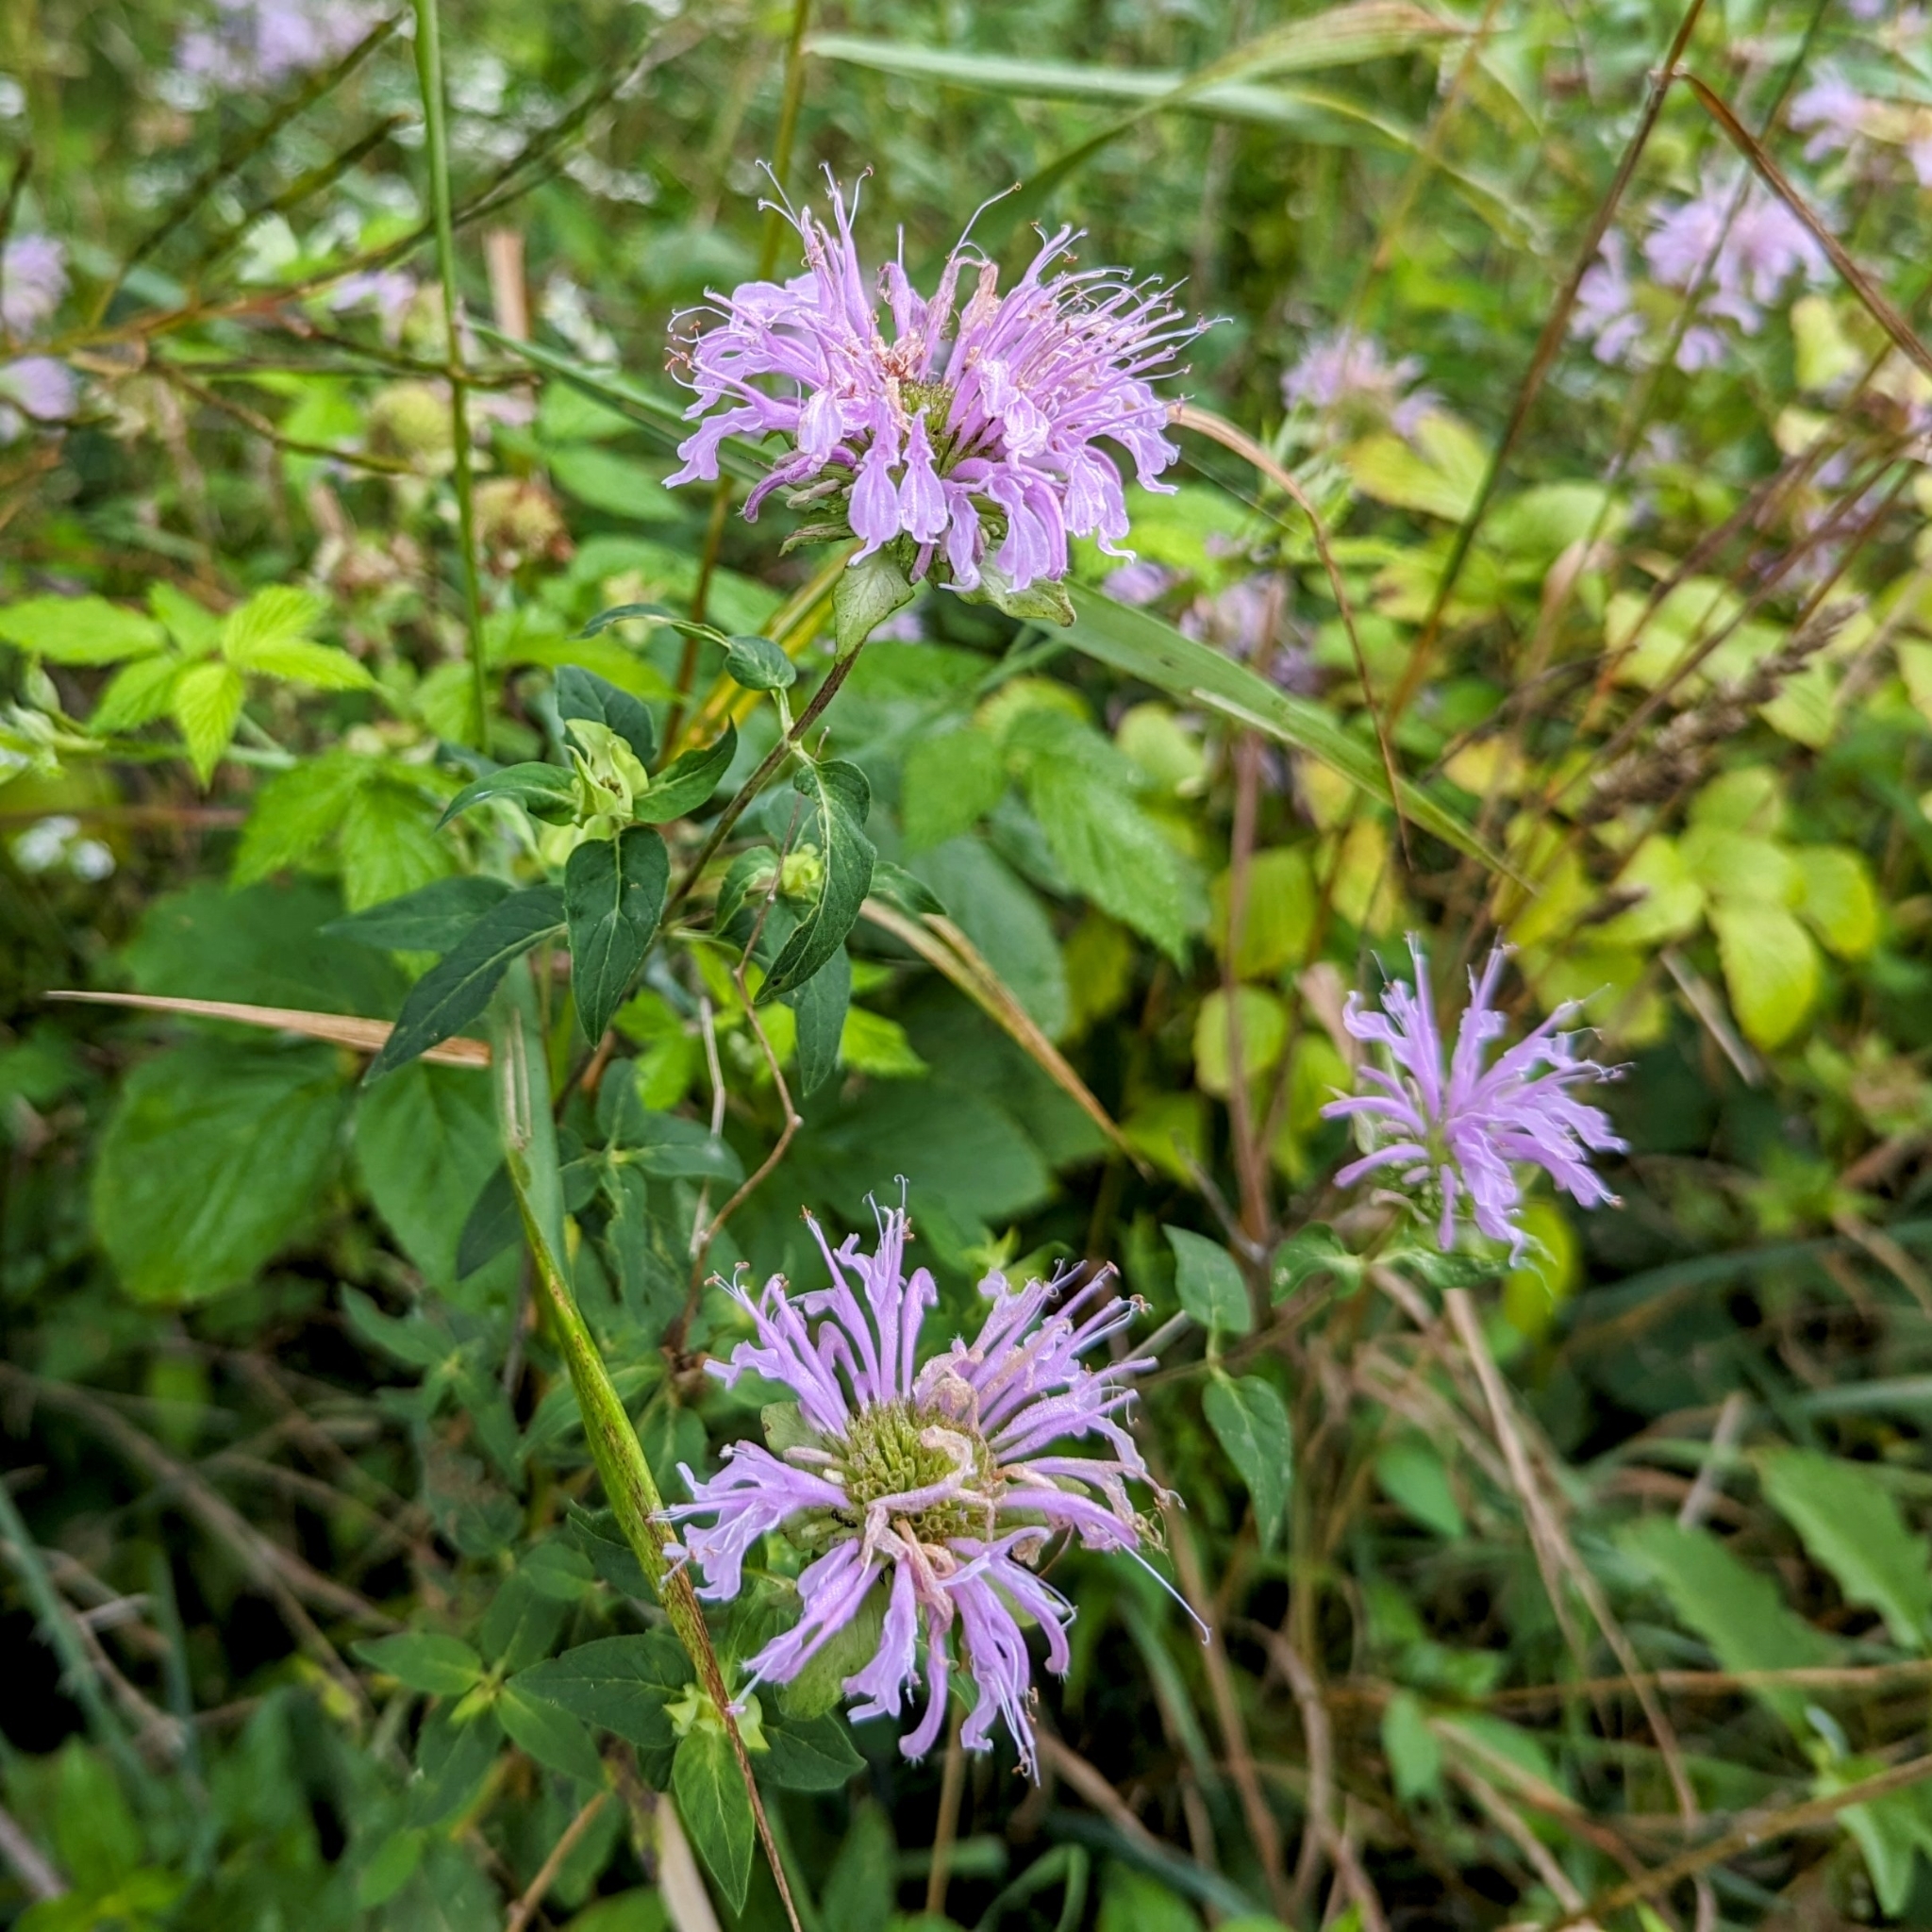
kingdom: Plantae
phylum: Tracheophyta
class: Magnoliopsida
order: Lamiales
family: Lamiaceae
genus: Monarda
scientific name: Monarda fistulosa
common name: Purple beebalm
